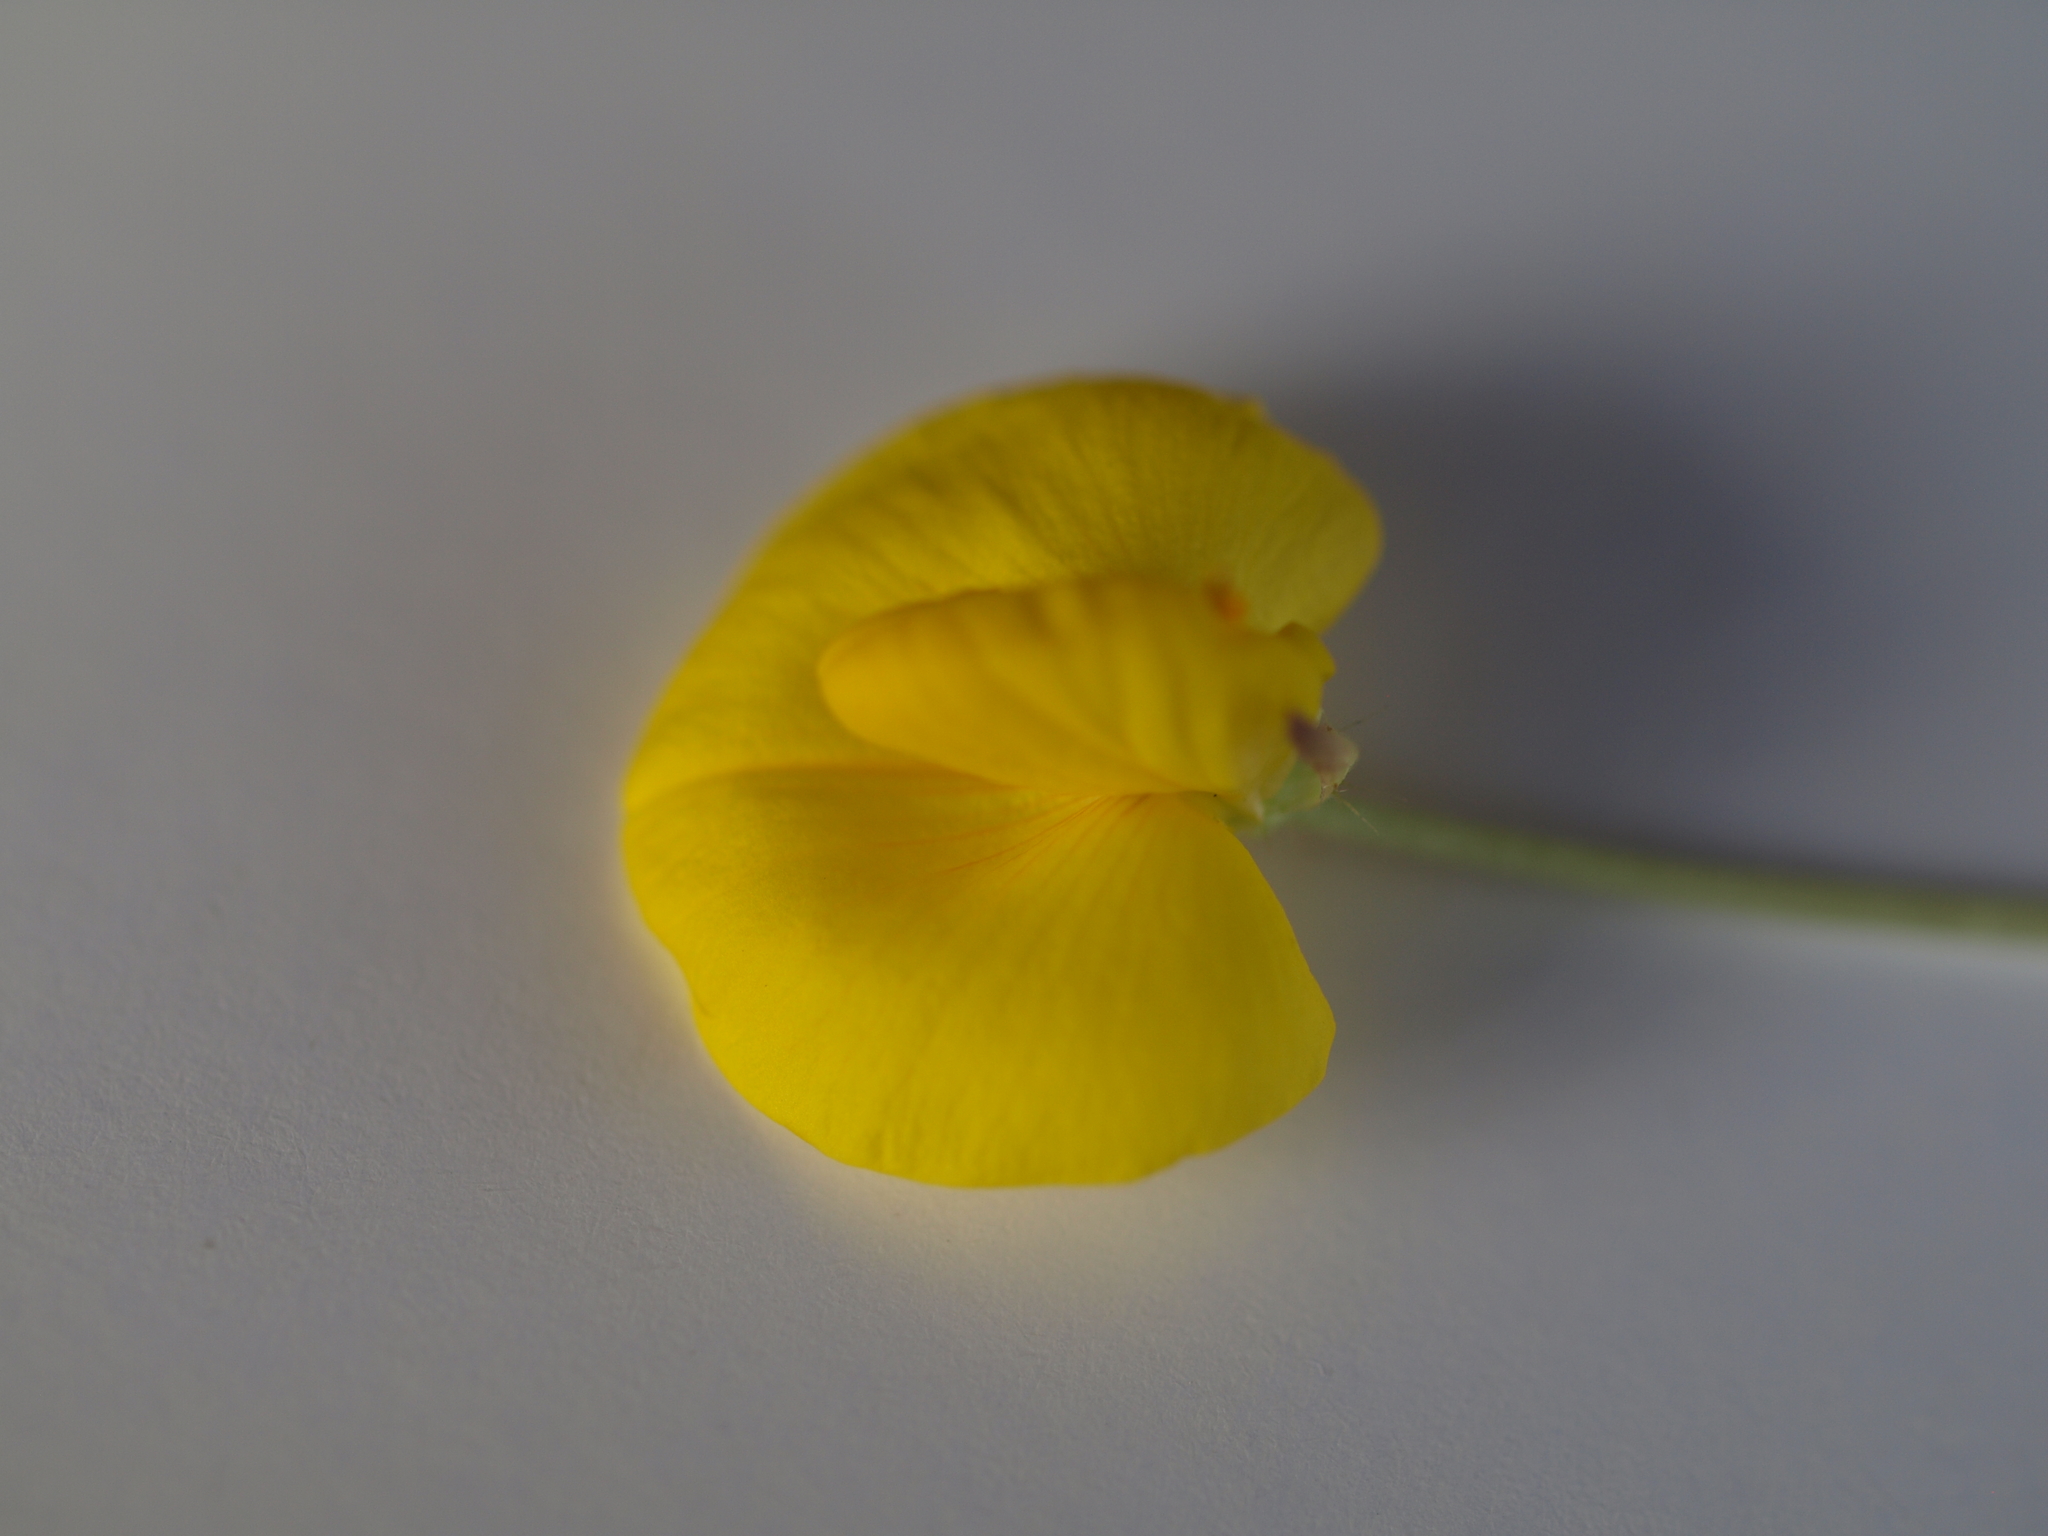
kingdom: Plantae
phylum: Tracheophyta
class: Magnoliopsida
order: Fabales
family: Fabaceae
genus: Arachis
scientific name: Arachis pintoi
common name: Pinto peanut
